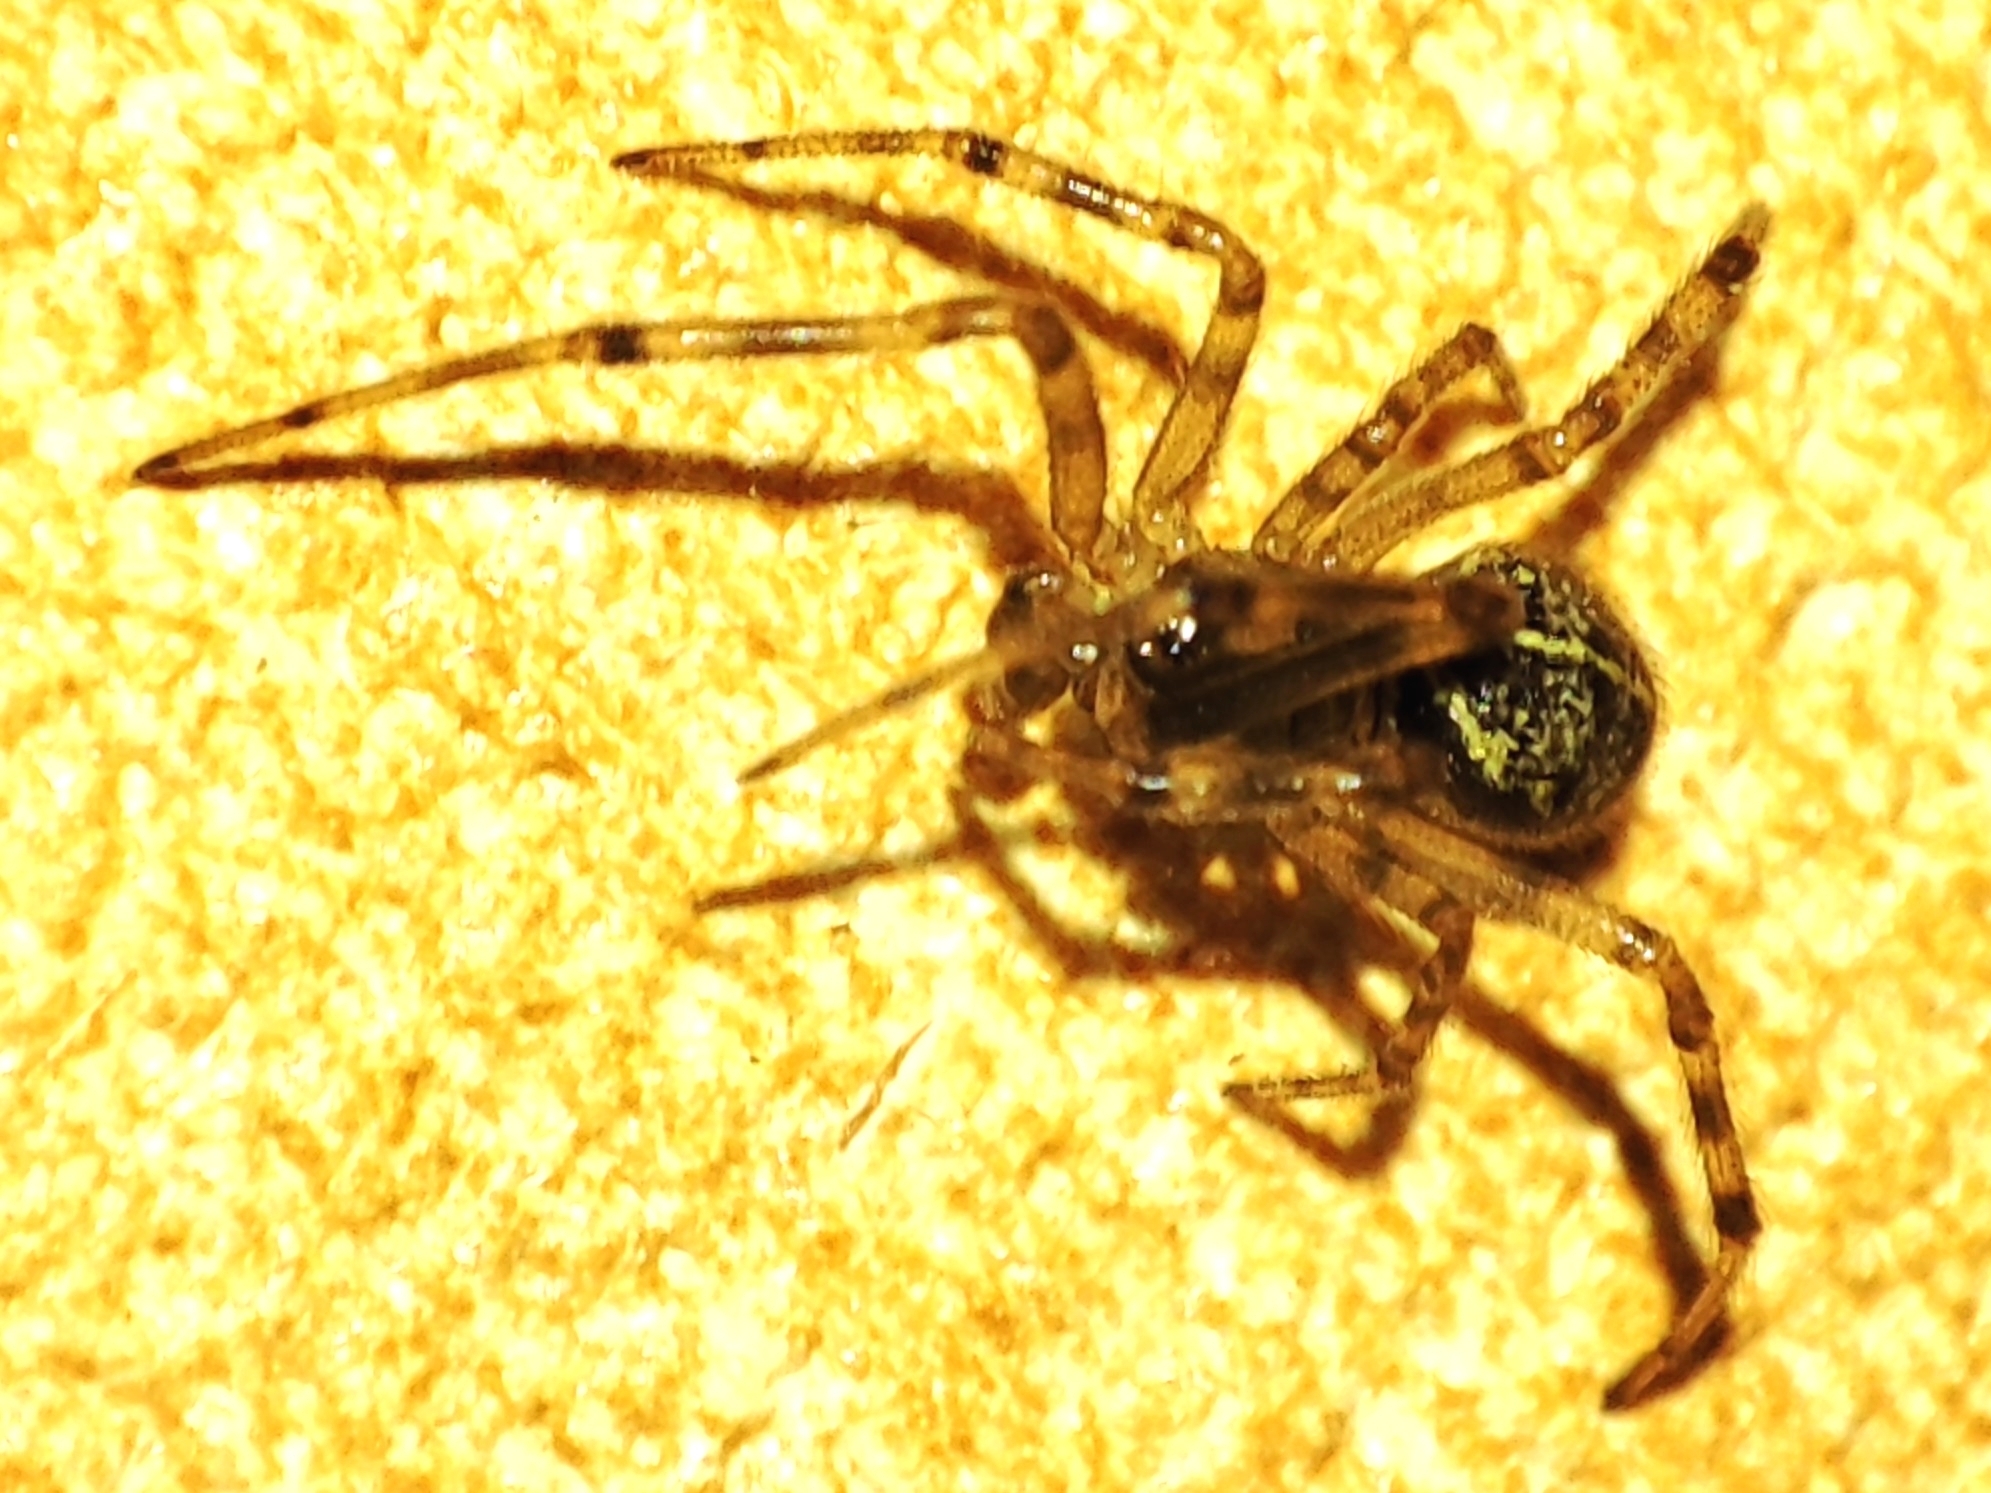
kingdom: Animalia
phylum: Arthropoda
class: Arachnida
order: Araneae
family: Theridiidae
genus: Steatoda
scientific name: Steatoda castanea
